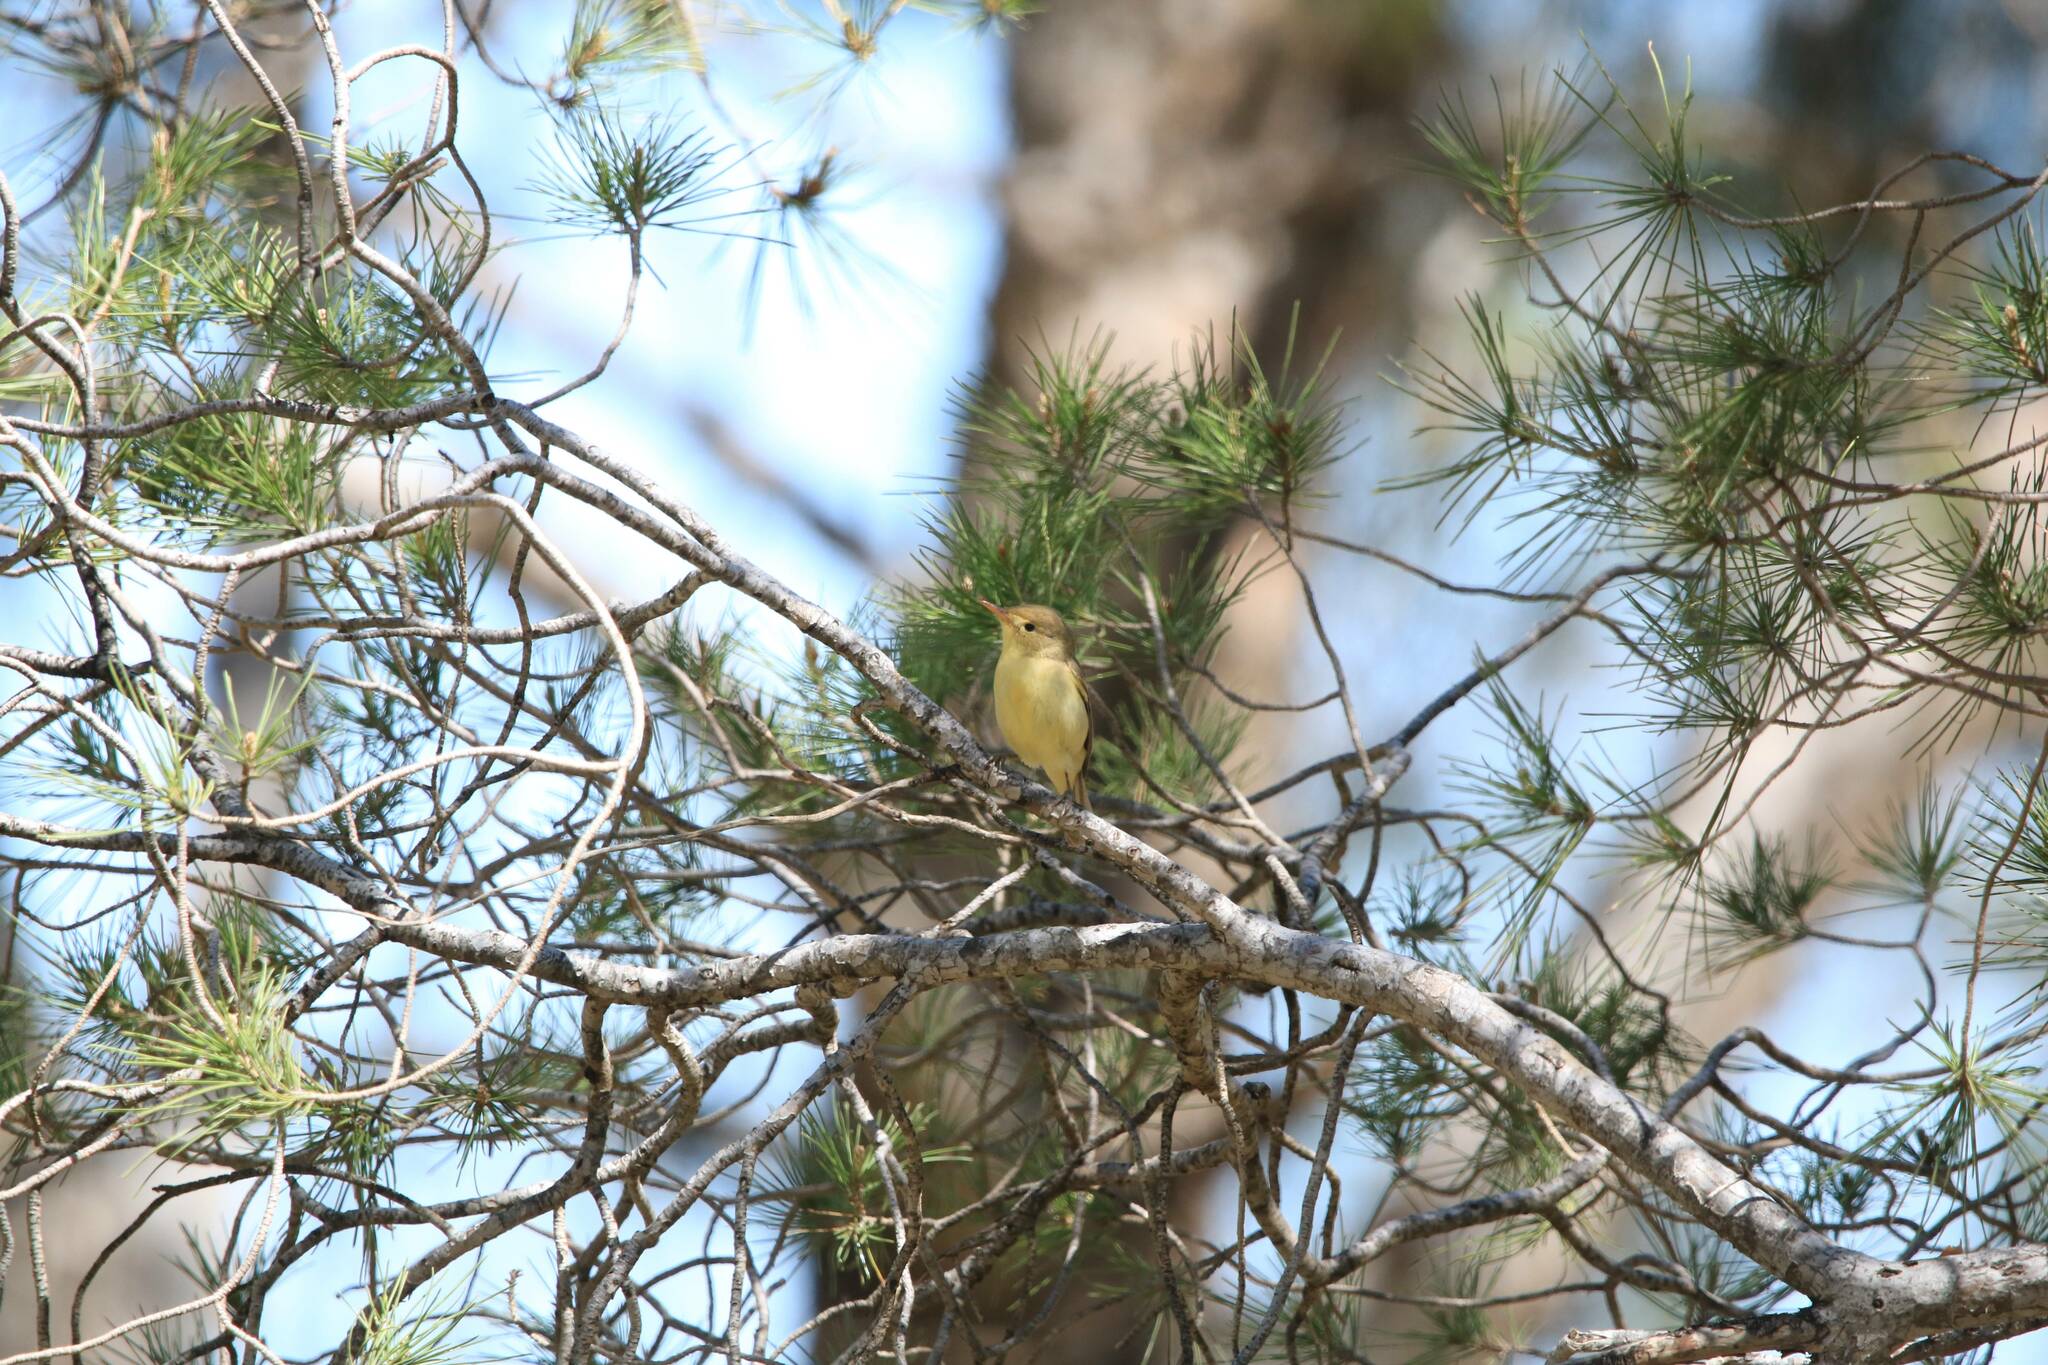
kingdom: Animalia
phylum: Chordata
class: Aves
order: Passeriformes
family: Acrocephalidae
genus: Hippolais
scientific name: Hippolais polyglotta
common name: Melodious warbler
